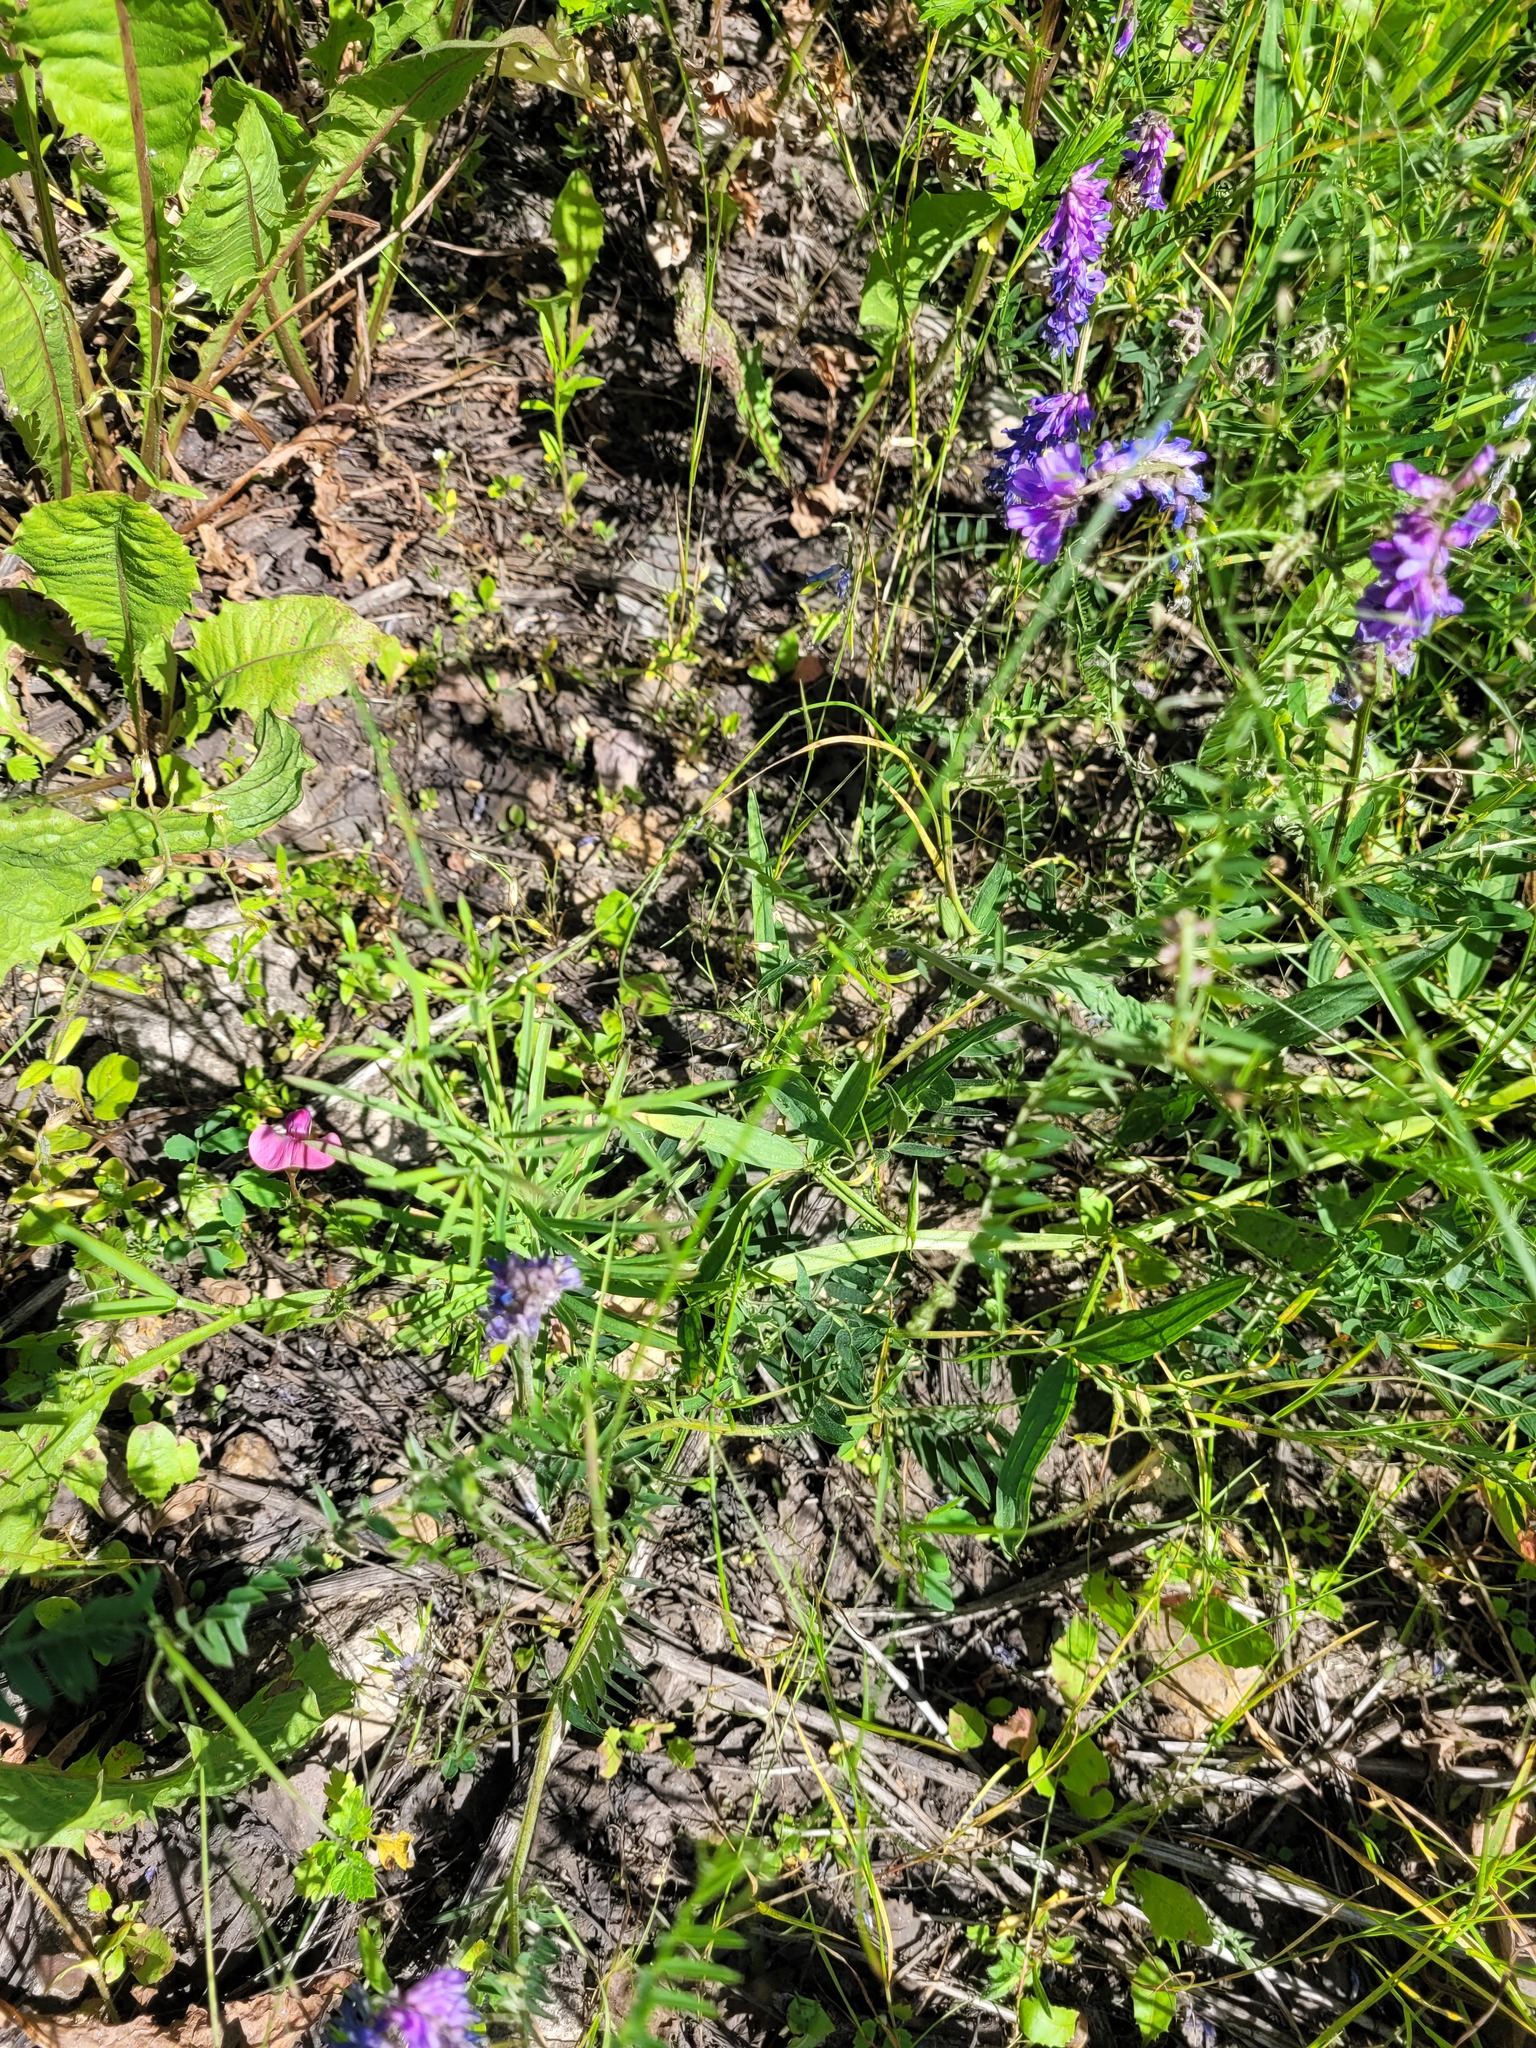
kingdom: Plantae
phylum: Tracheophyta
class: Magnoliopsida
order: Fabales
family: Fabaceae
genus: Vicia
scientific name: Vicia cracca
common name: Bird vetch
